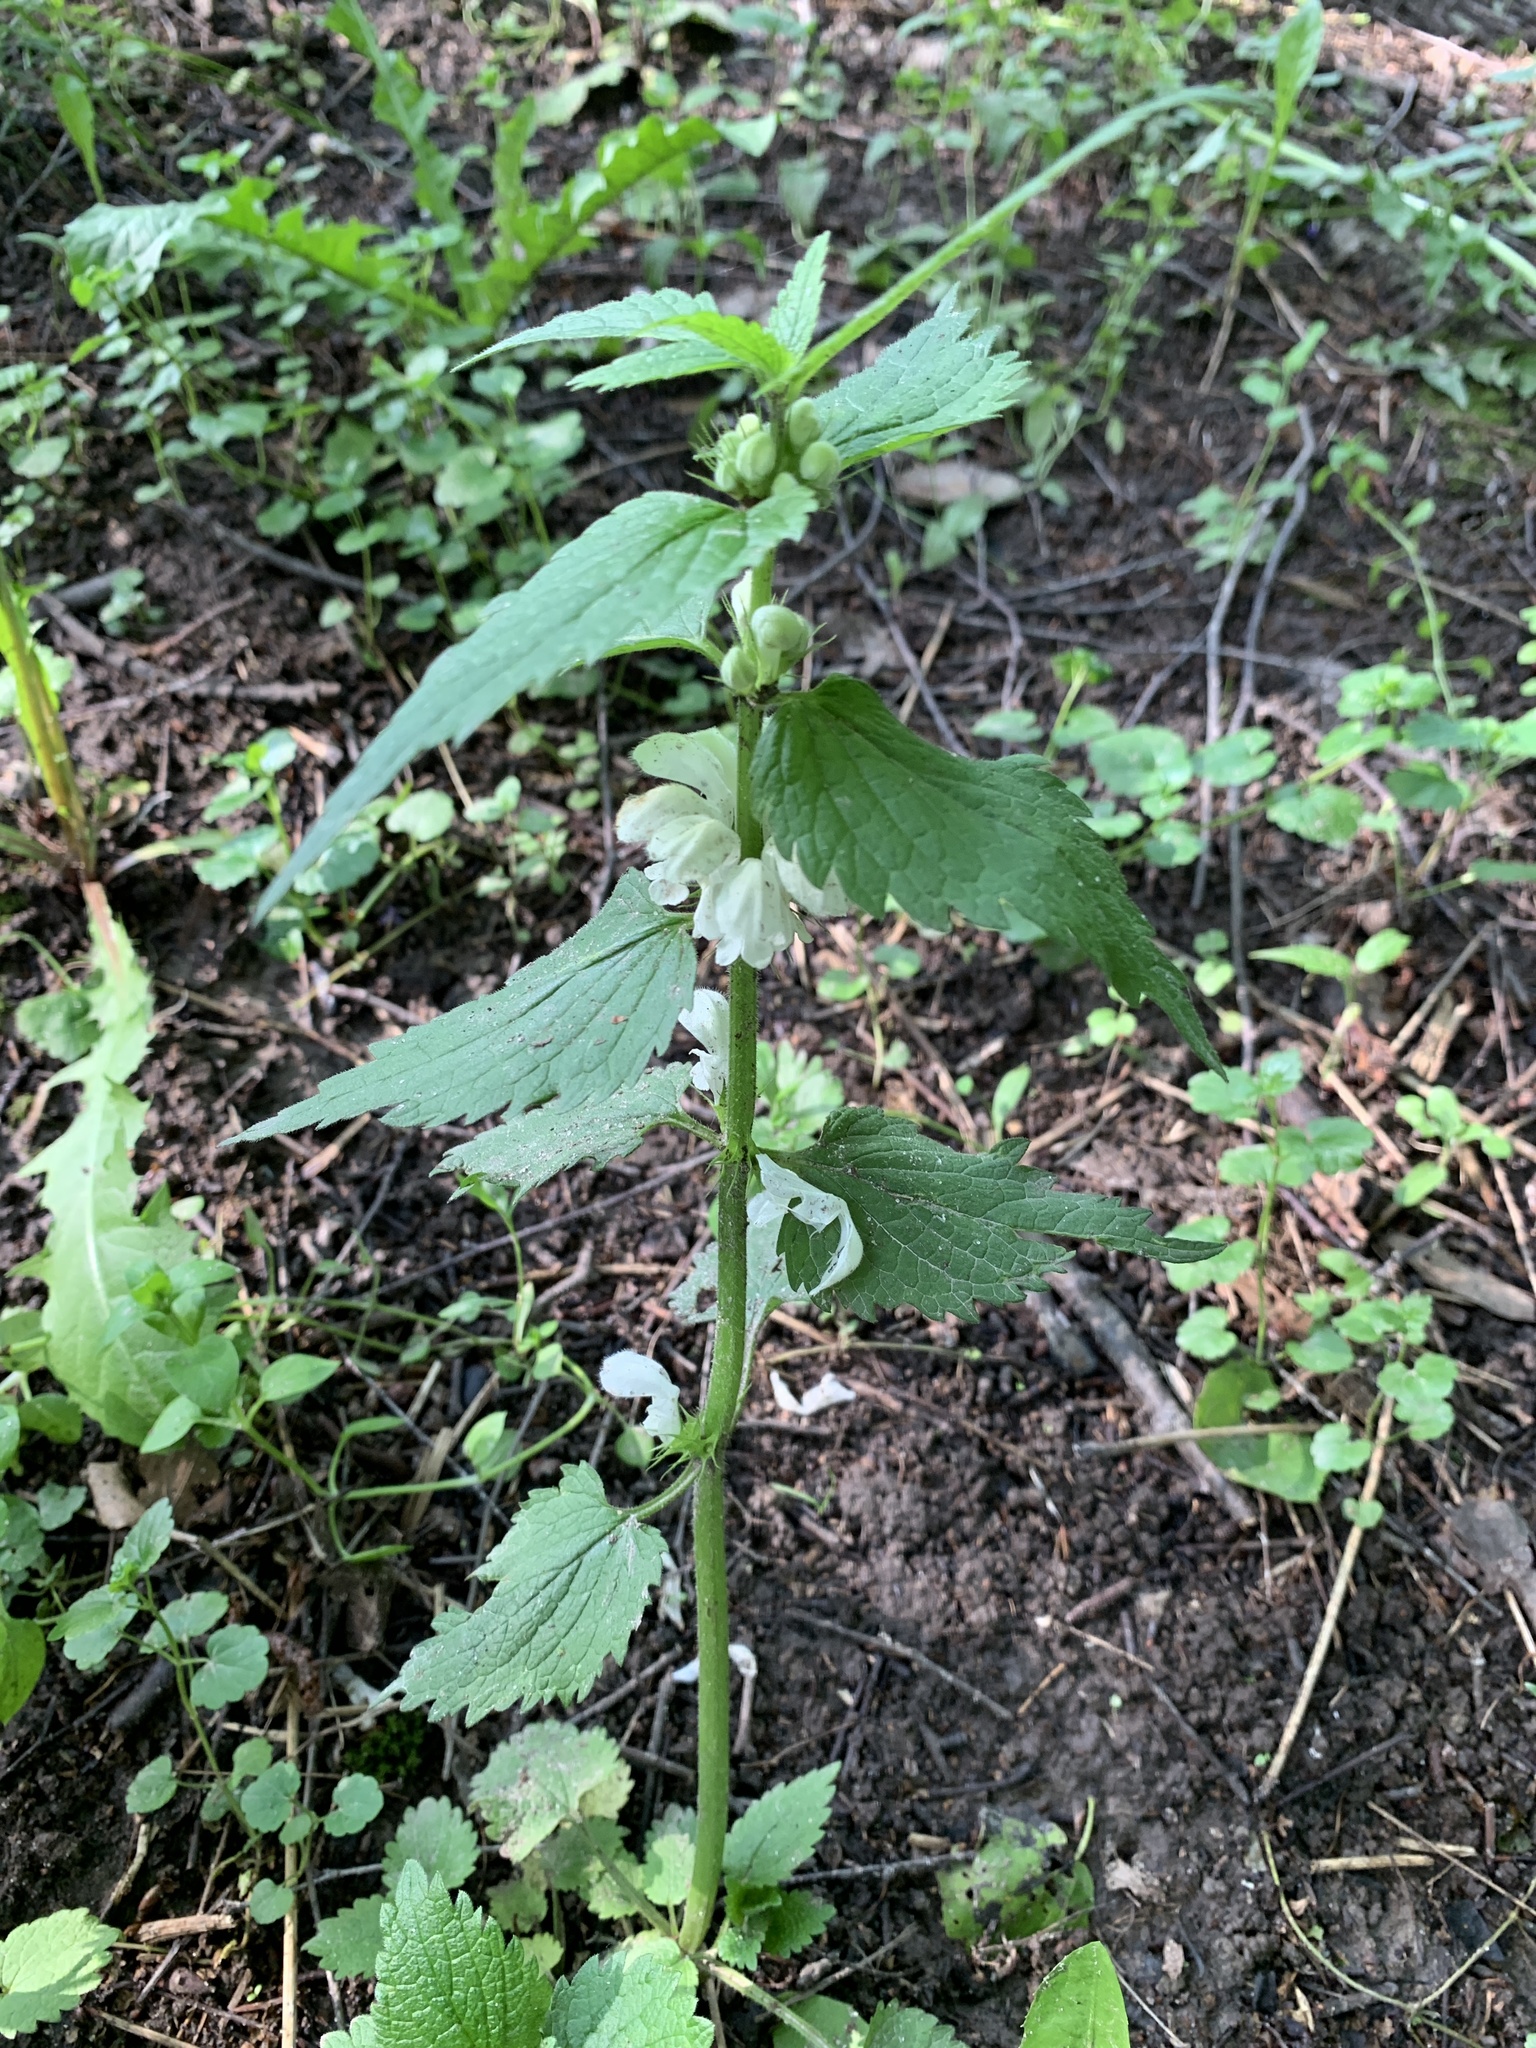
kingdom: Plantae
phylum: Tracheophyta
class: Magnoliopsida
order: Lamiales
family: Lamiaceae
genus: Lamium
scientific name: Lamium album
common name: White dead-nettle
